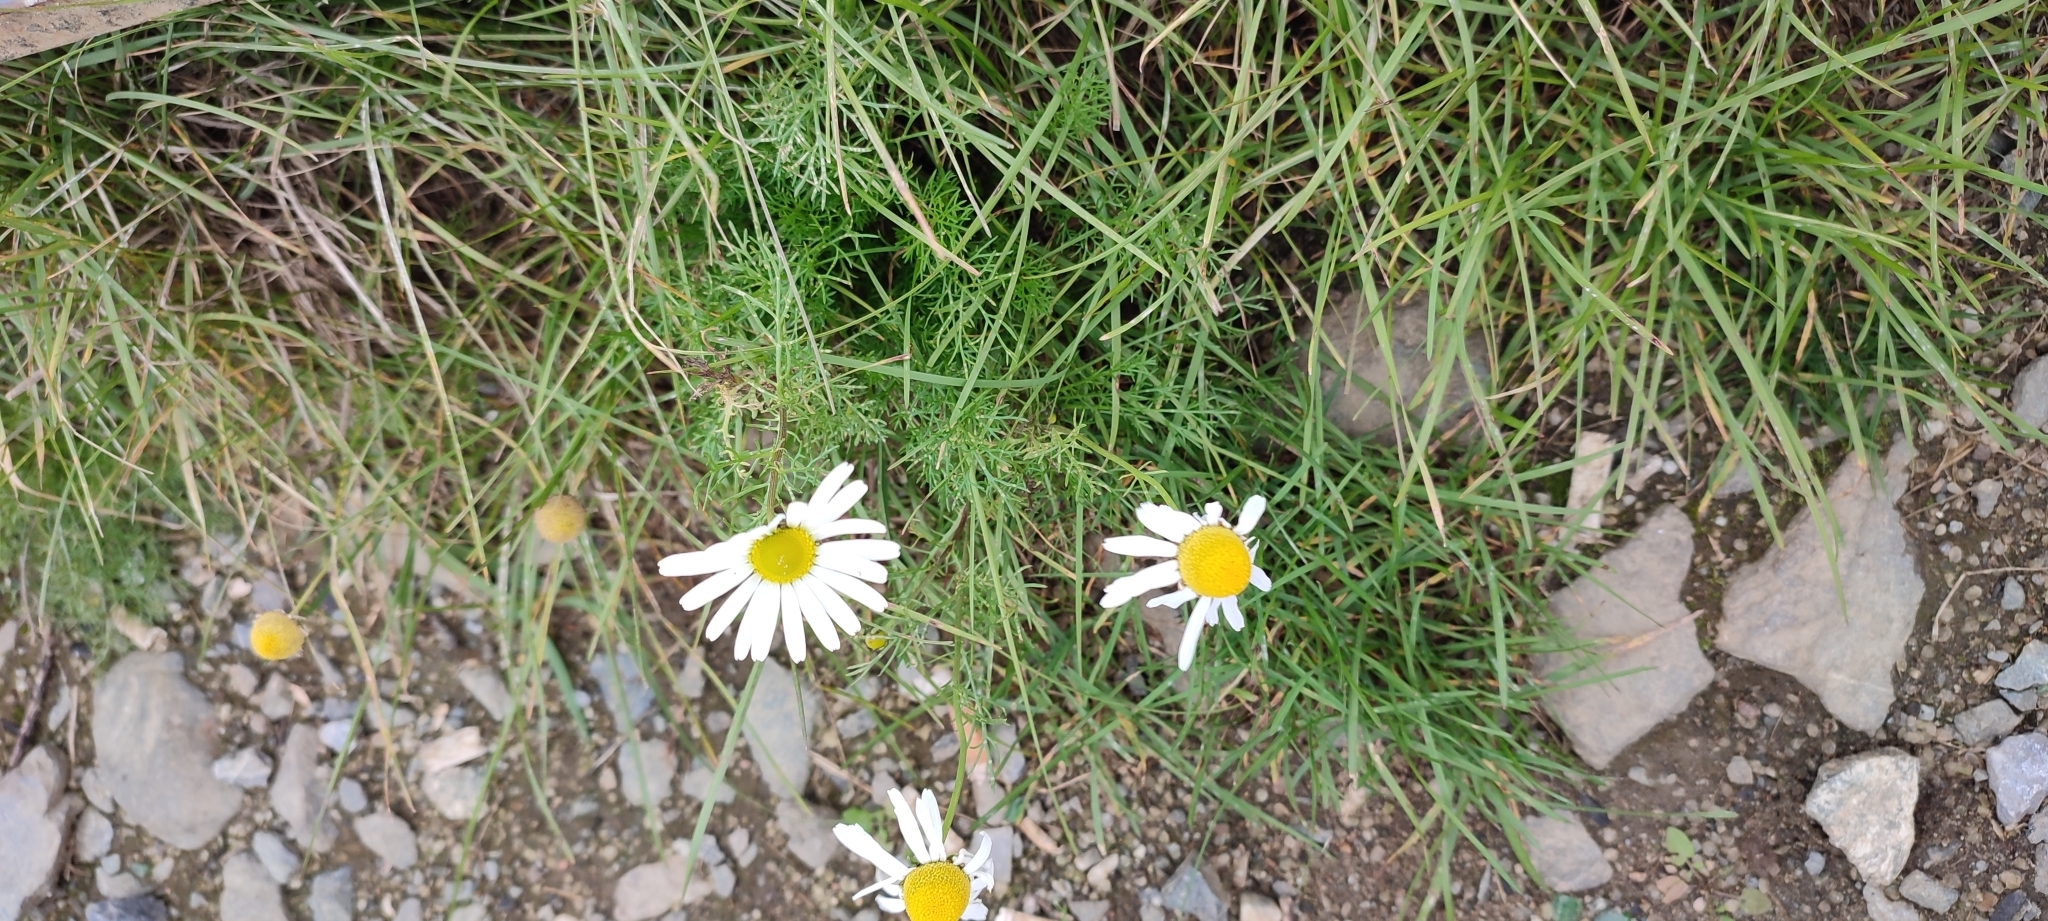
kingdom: Plantae
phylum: Tracheophyta
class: Magnoliopsida
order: Asterales
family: Asteraceae
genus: Tripleurospermum
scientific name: Tripleurospermum hookeri
